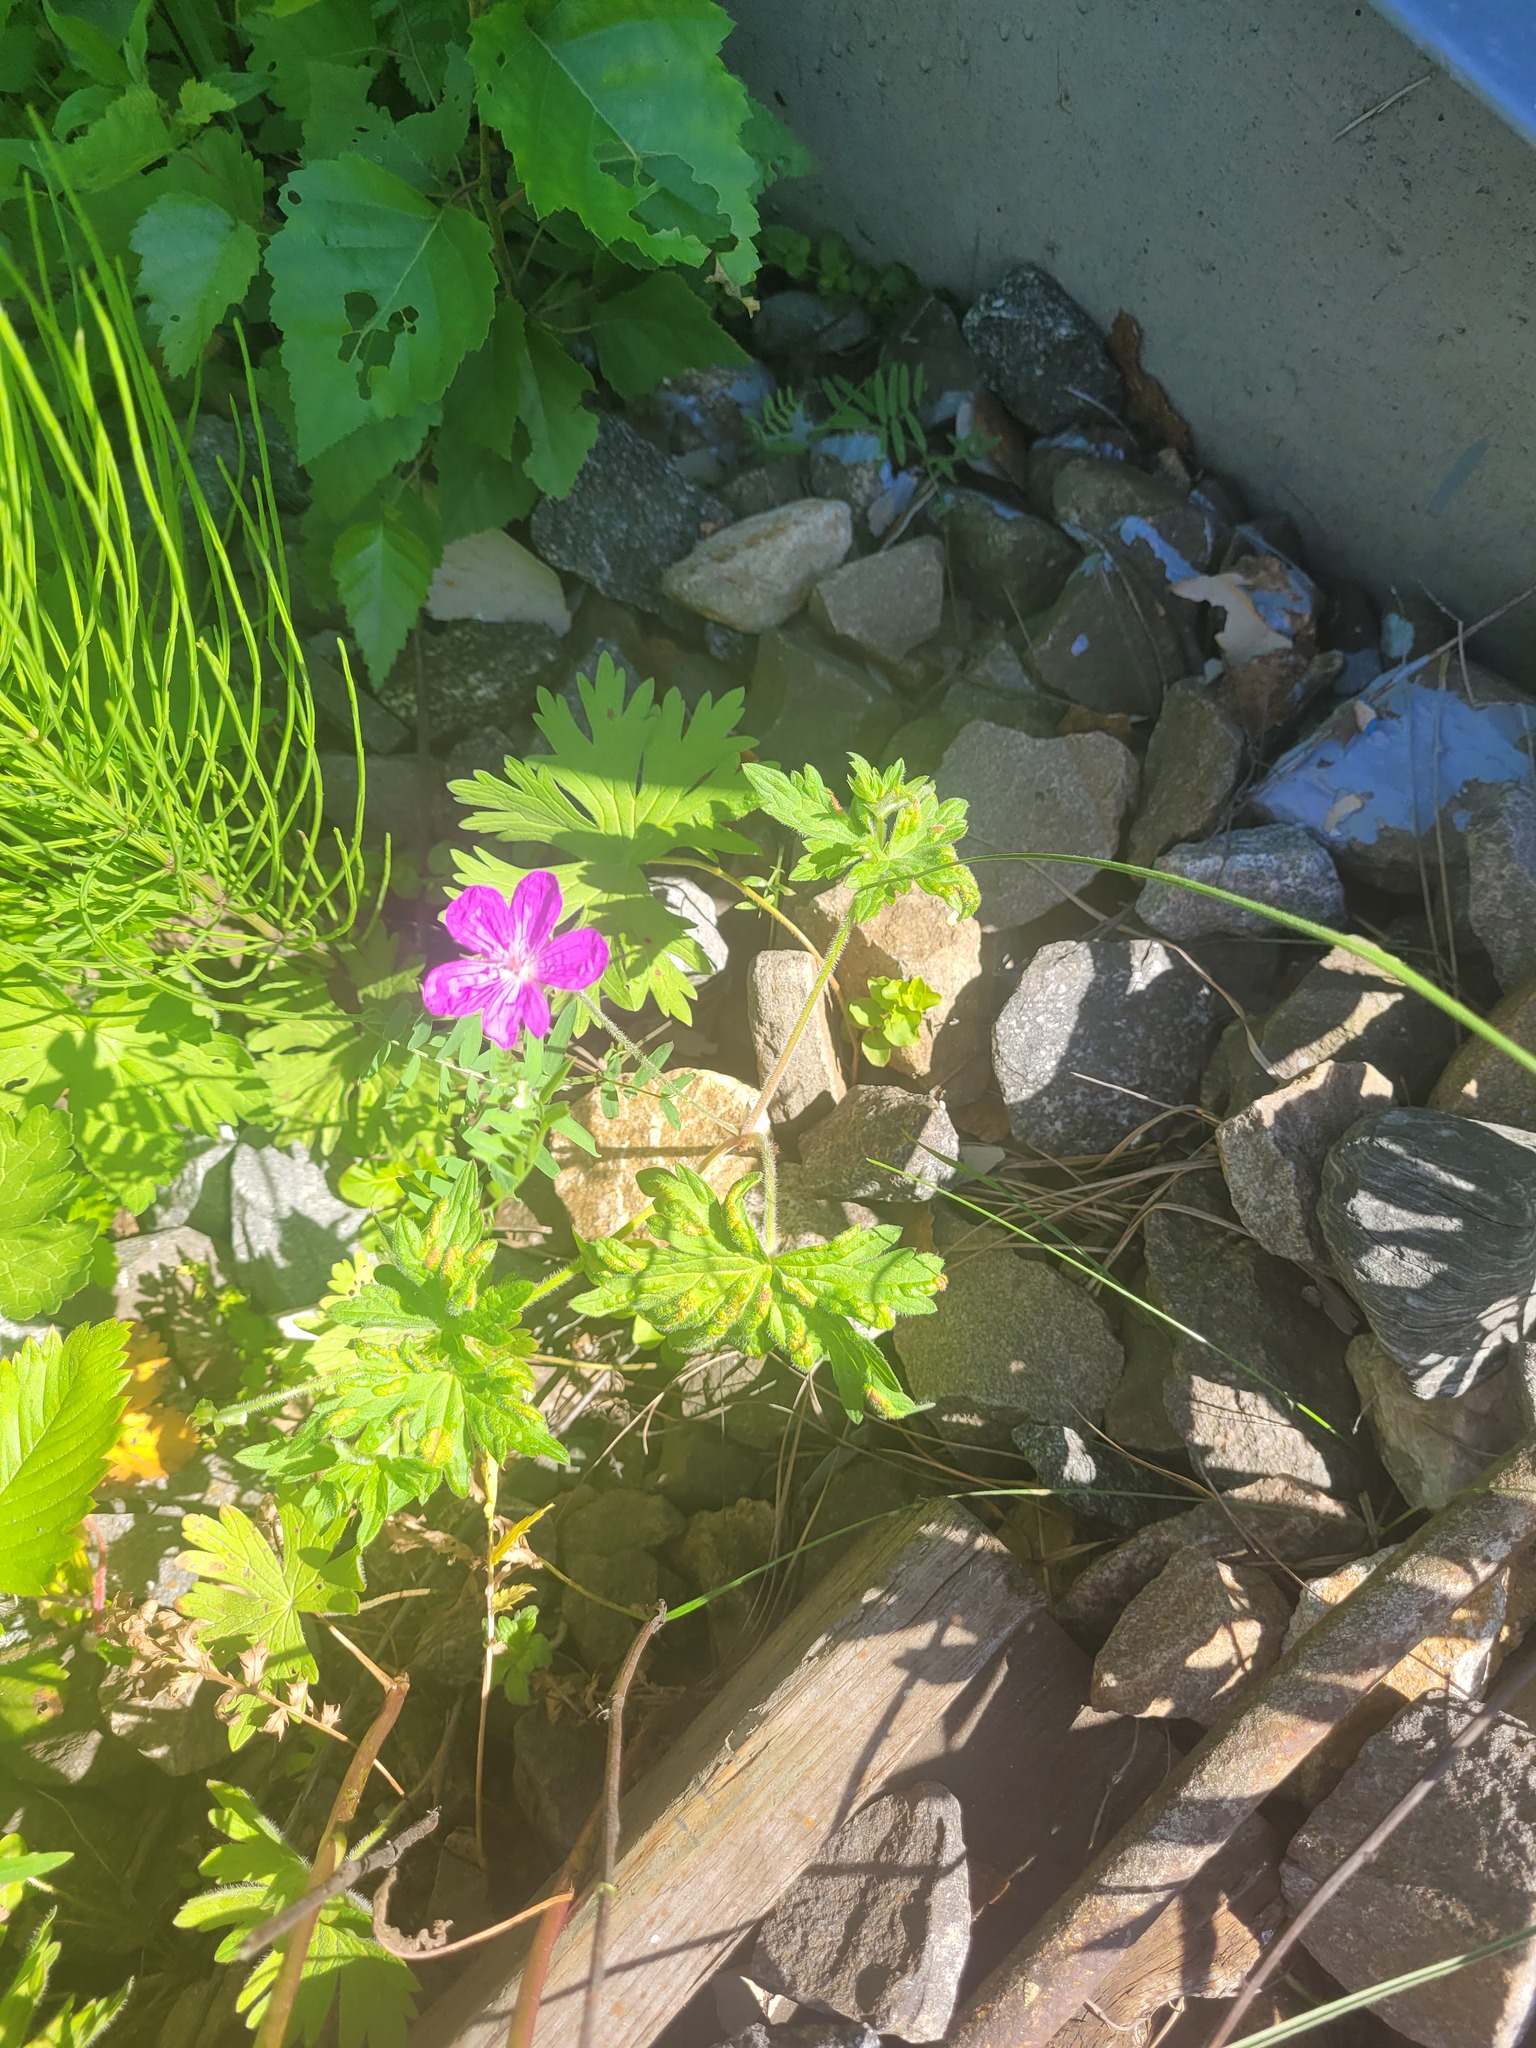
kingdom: Plantae
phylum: Tracheophyta
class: Magnoliopsida
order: Geraniales
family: Geraniaceae
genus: Geranium
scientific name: Geranium palustre
